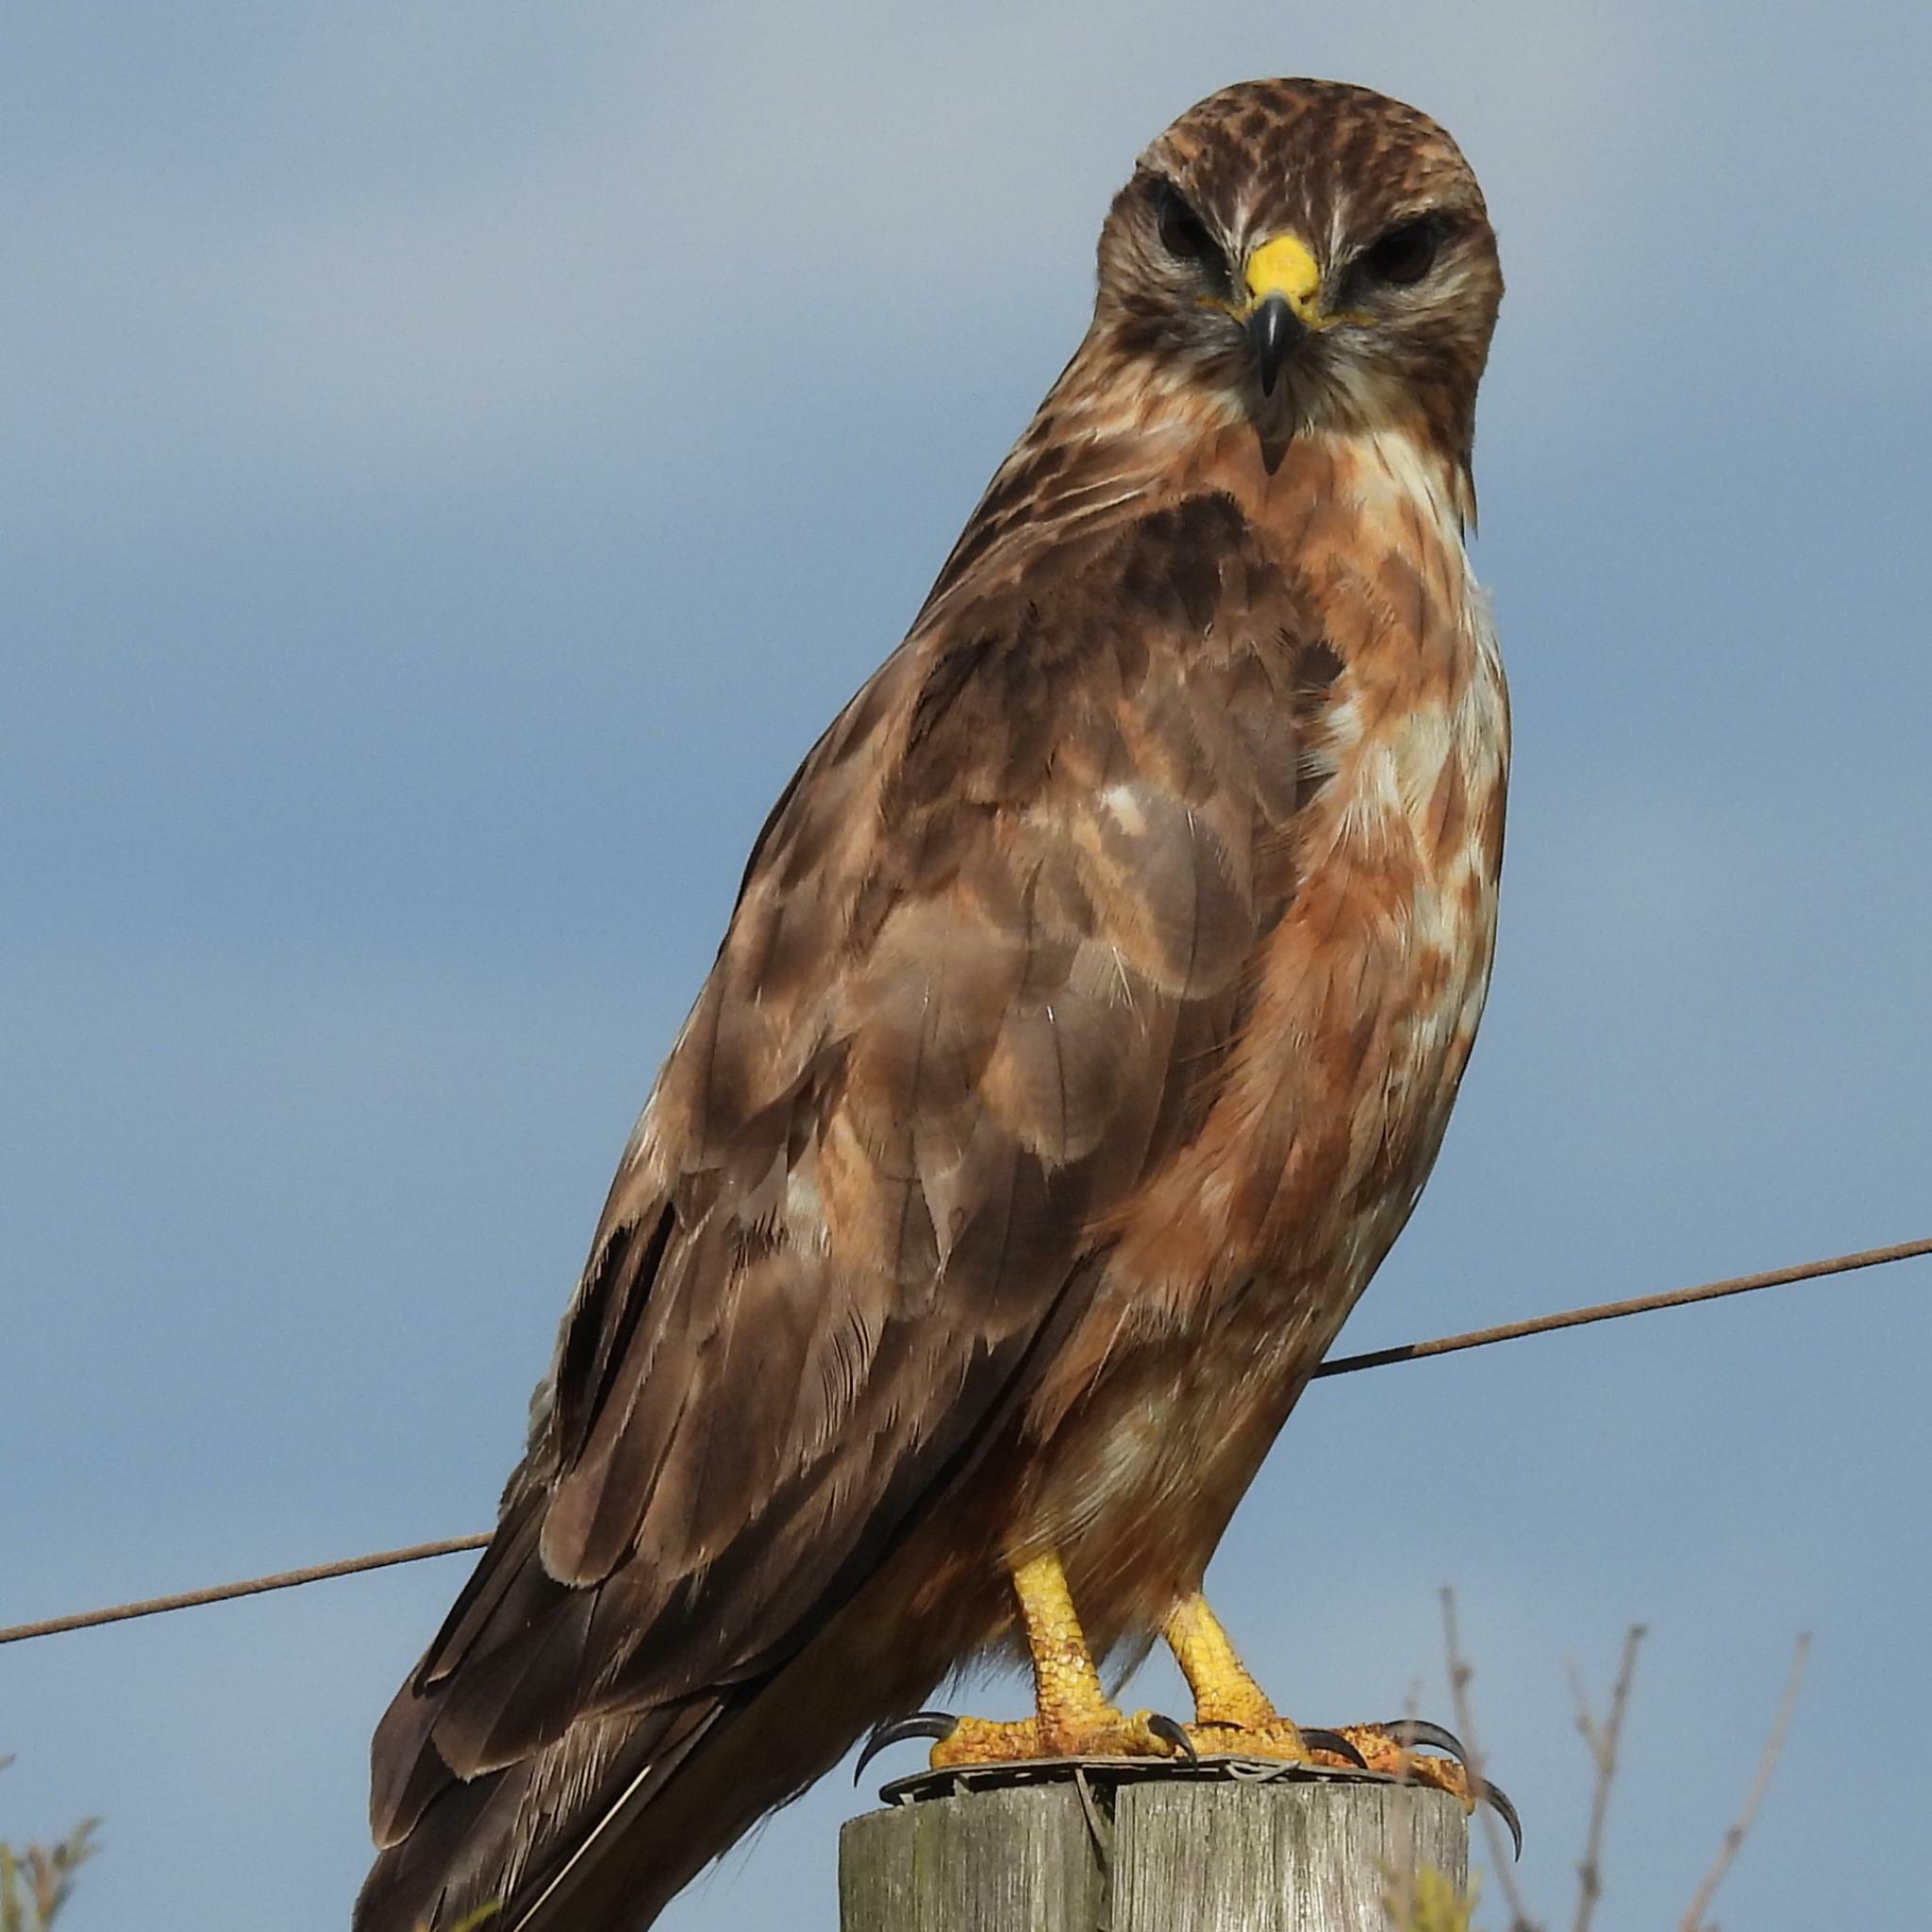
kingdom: Animalia
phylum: Chordata
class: Aves
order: Accipitriformes
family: Accipitridae
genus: Buteo
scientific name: Buteo buteo
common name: Common buzzard
